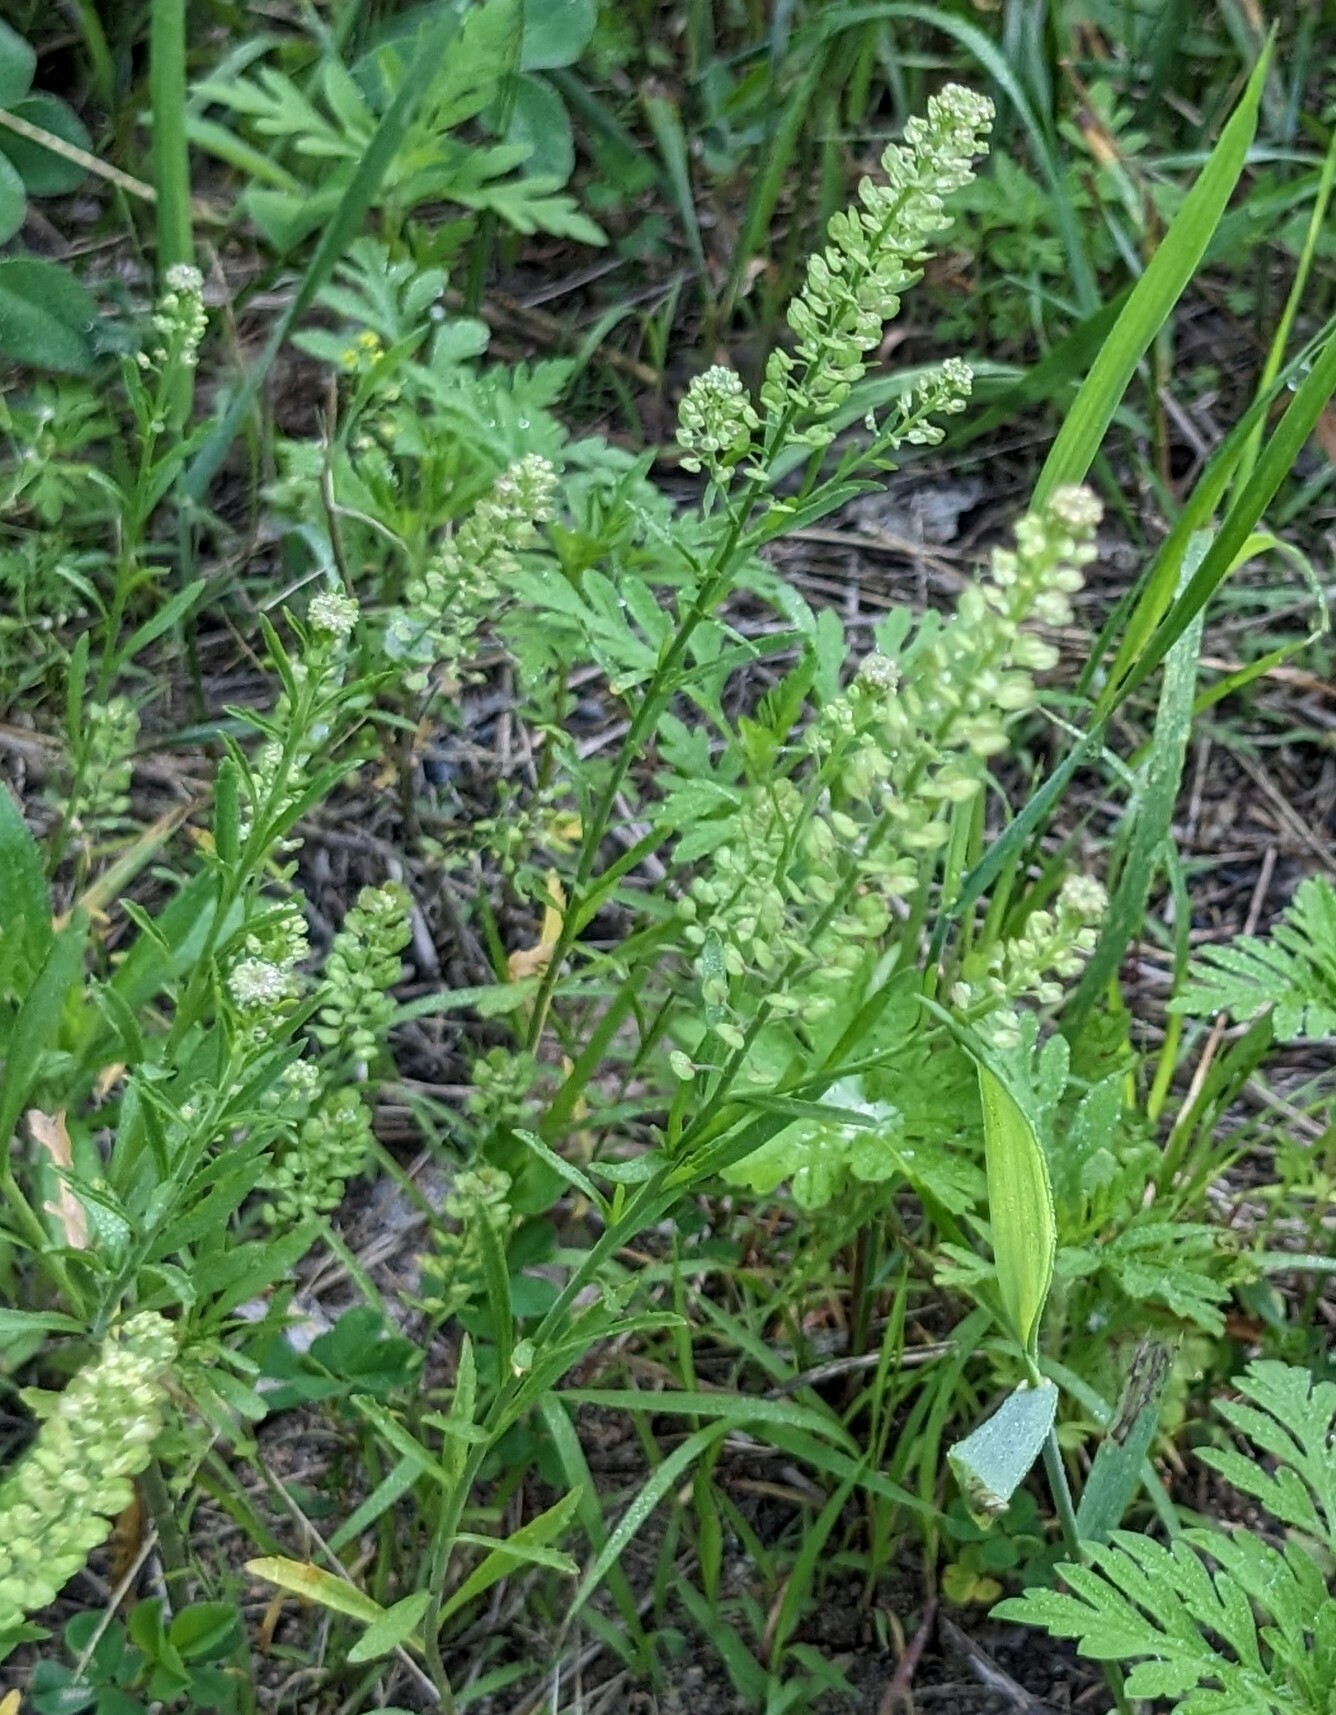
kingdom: Plantae
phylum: Tracheophyta
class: Magnoliopsida
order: Brassicales
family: Brassicaceae
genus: Lepidium
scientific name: Lepidium densiflorum
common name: Miner's pepperwort
